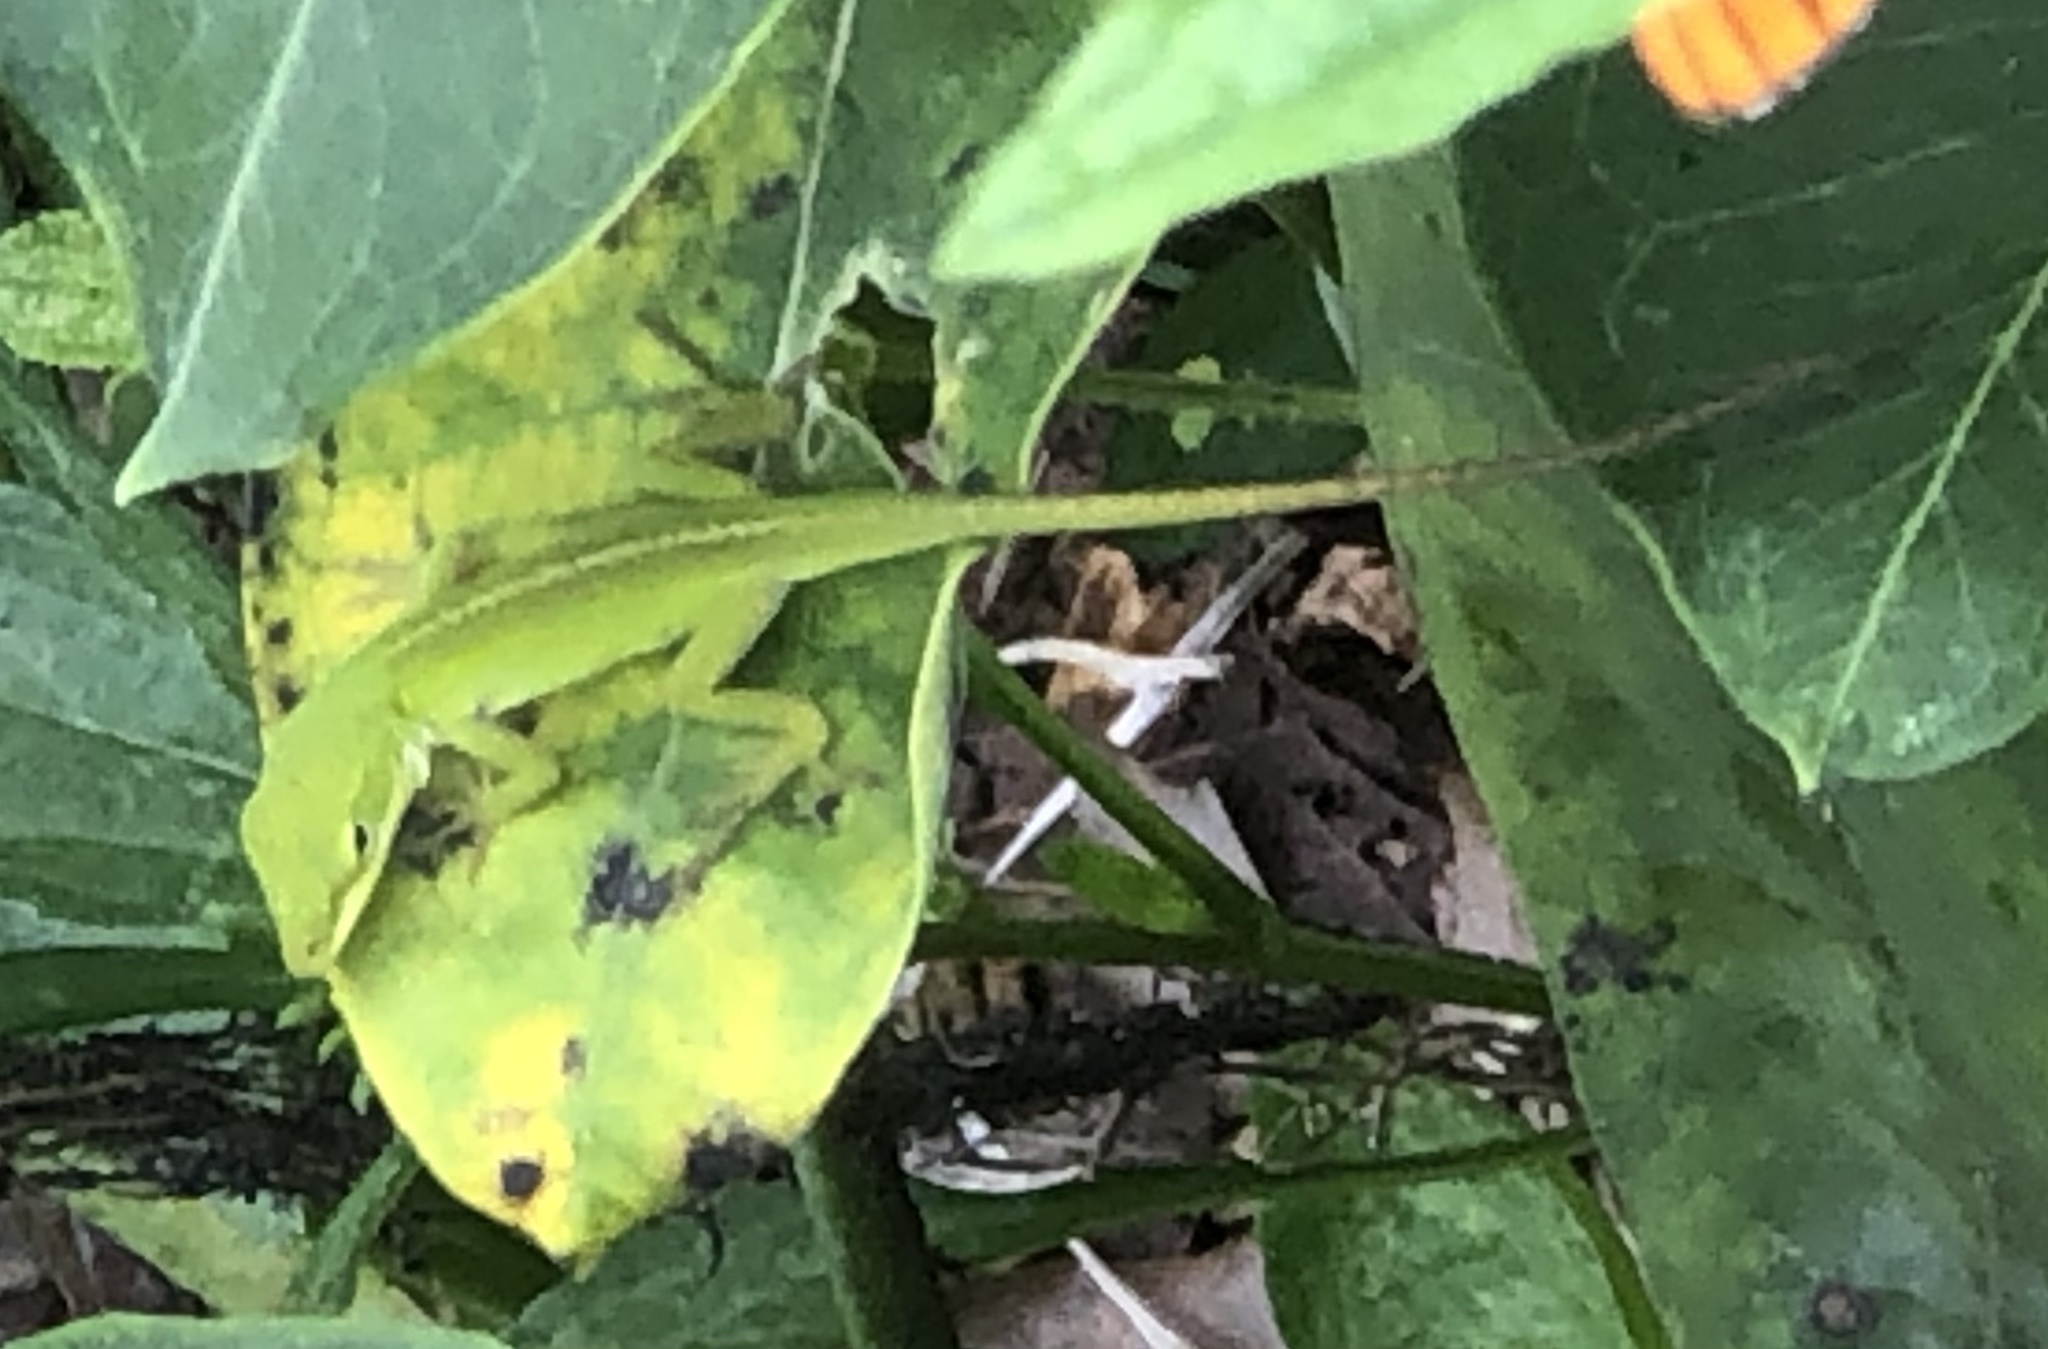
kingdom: Animalia
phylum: Chordata
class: Squamata
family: Dactyloidae
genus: Anolis
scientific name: Anolis carolinensis
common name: Green anole
